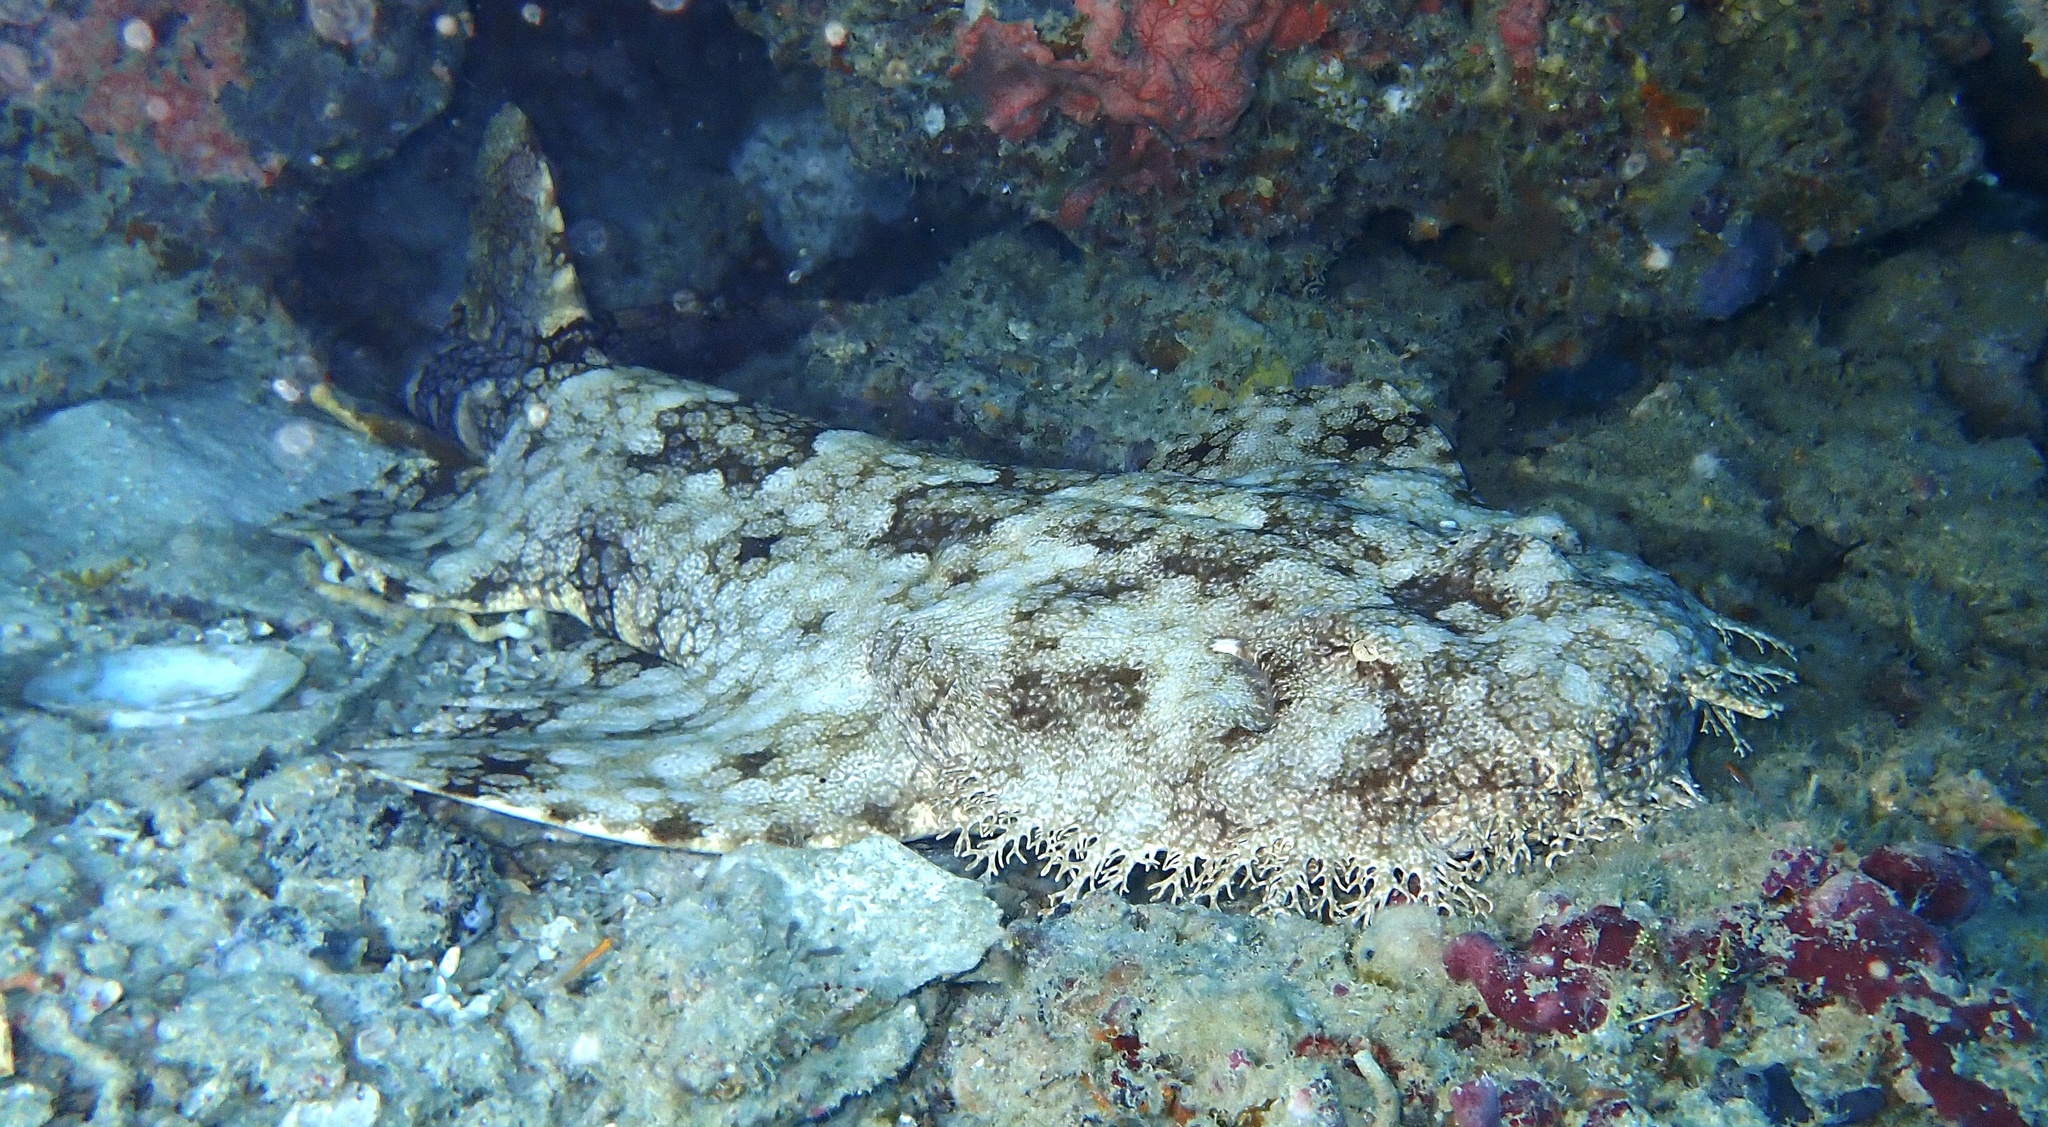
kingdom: Animalia
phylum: Chordata
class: Elasmobranchii
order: Orectolobiformes
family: Orectolobidae
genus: Eucrossorhinus
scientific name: Eucrossorhinus dasypogon
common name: Tasselled wobbegong
